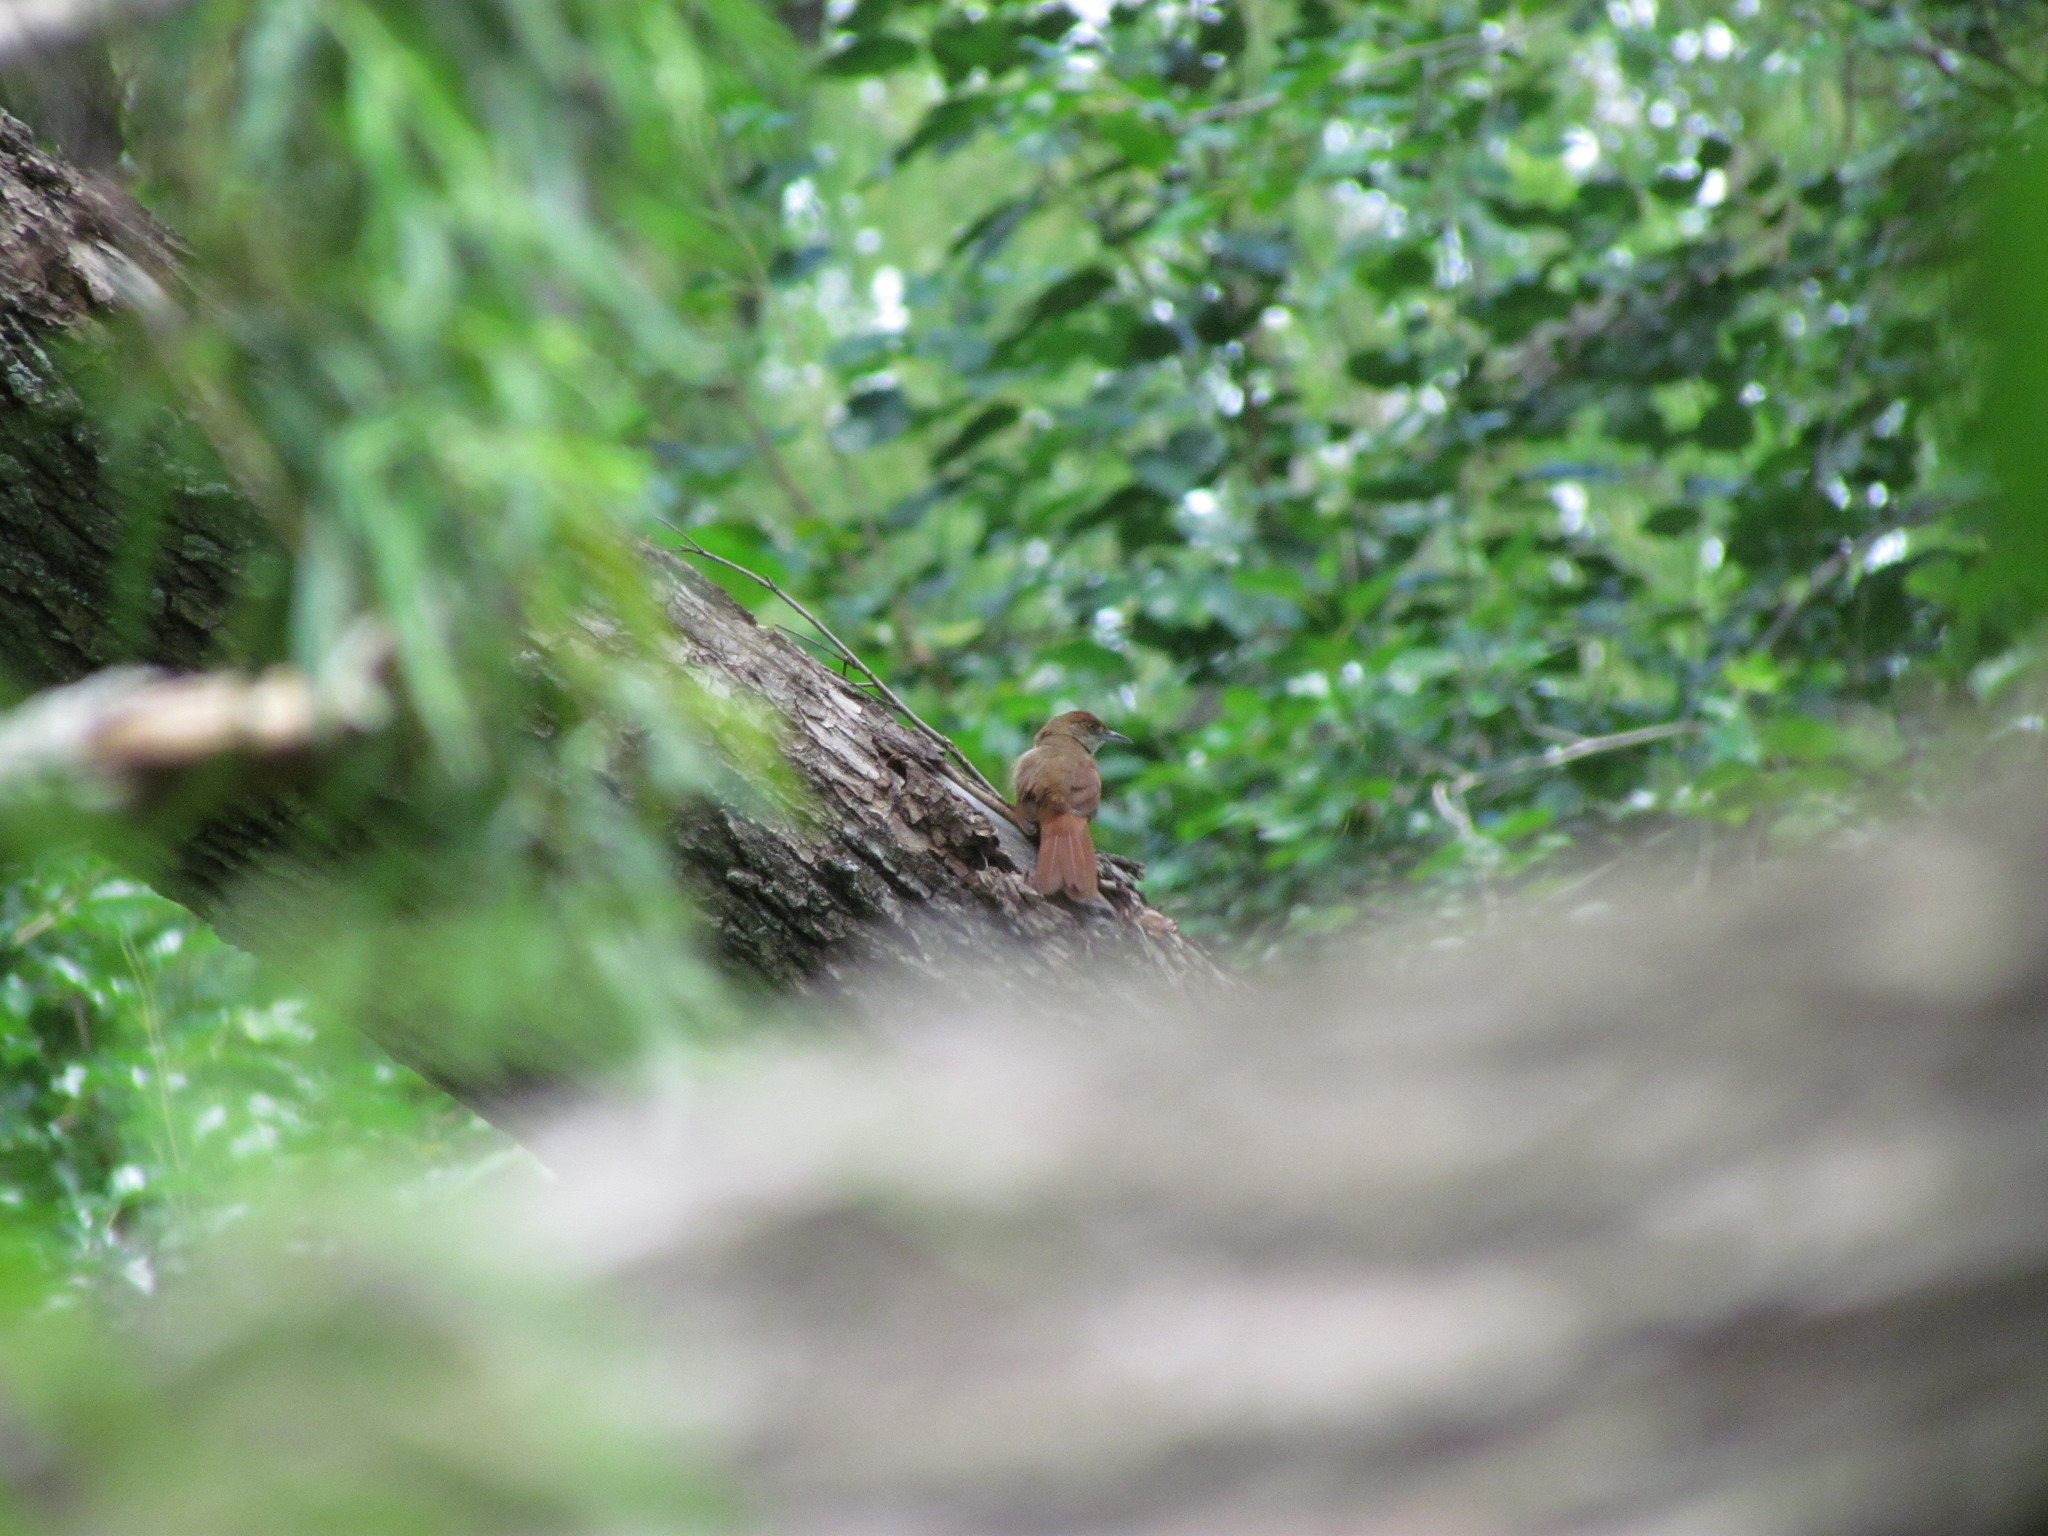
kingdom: Animalia
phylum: Chordata
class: Aves
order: Passeriformes
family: Furnariidae
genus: Phacellodomus
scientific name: Phacellodomus ruber
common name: Greater thornbird
